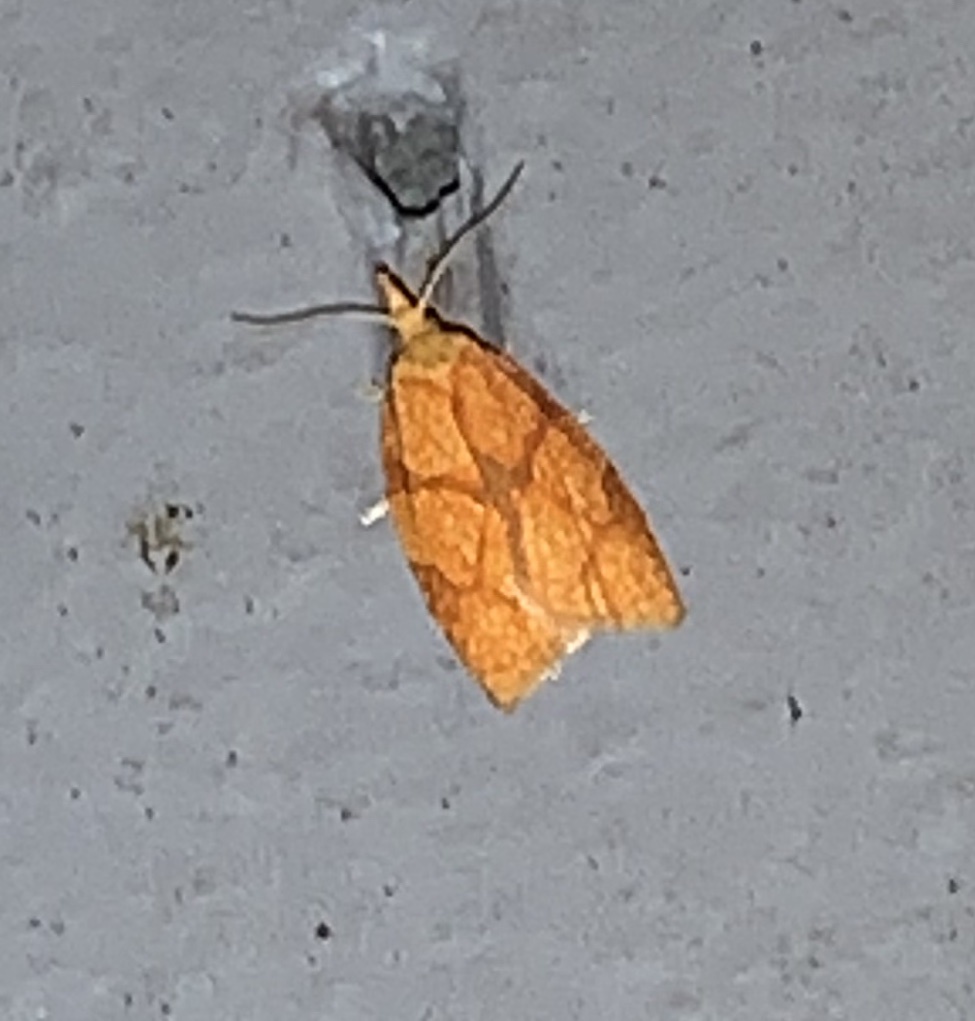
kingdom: Animalia
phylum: Arthropoda
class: Insecta
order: Lepidoptera
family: Tortricidae
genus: Cenopis
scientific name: Cenopis reticulatana
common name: Reticulated fruitworm moth
